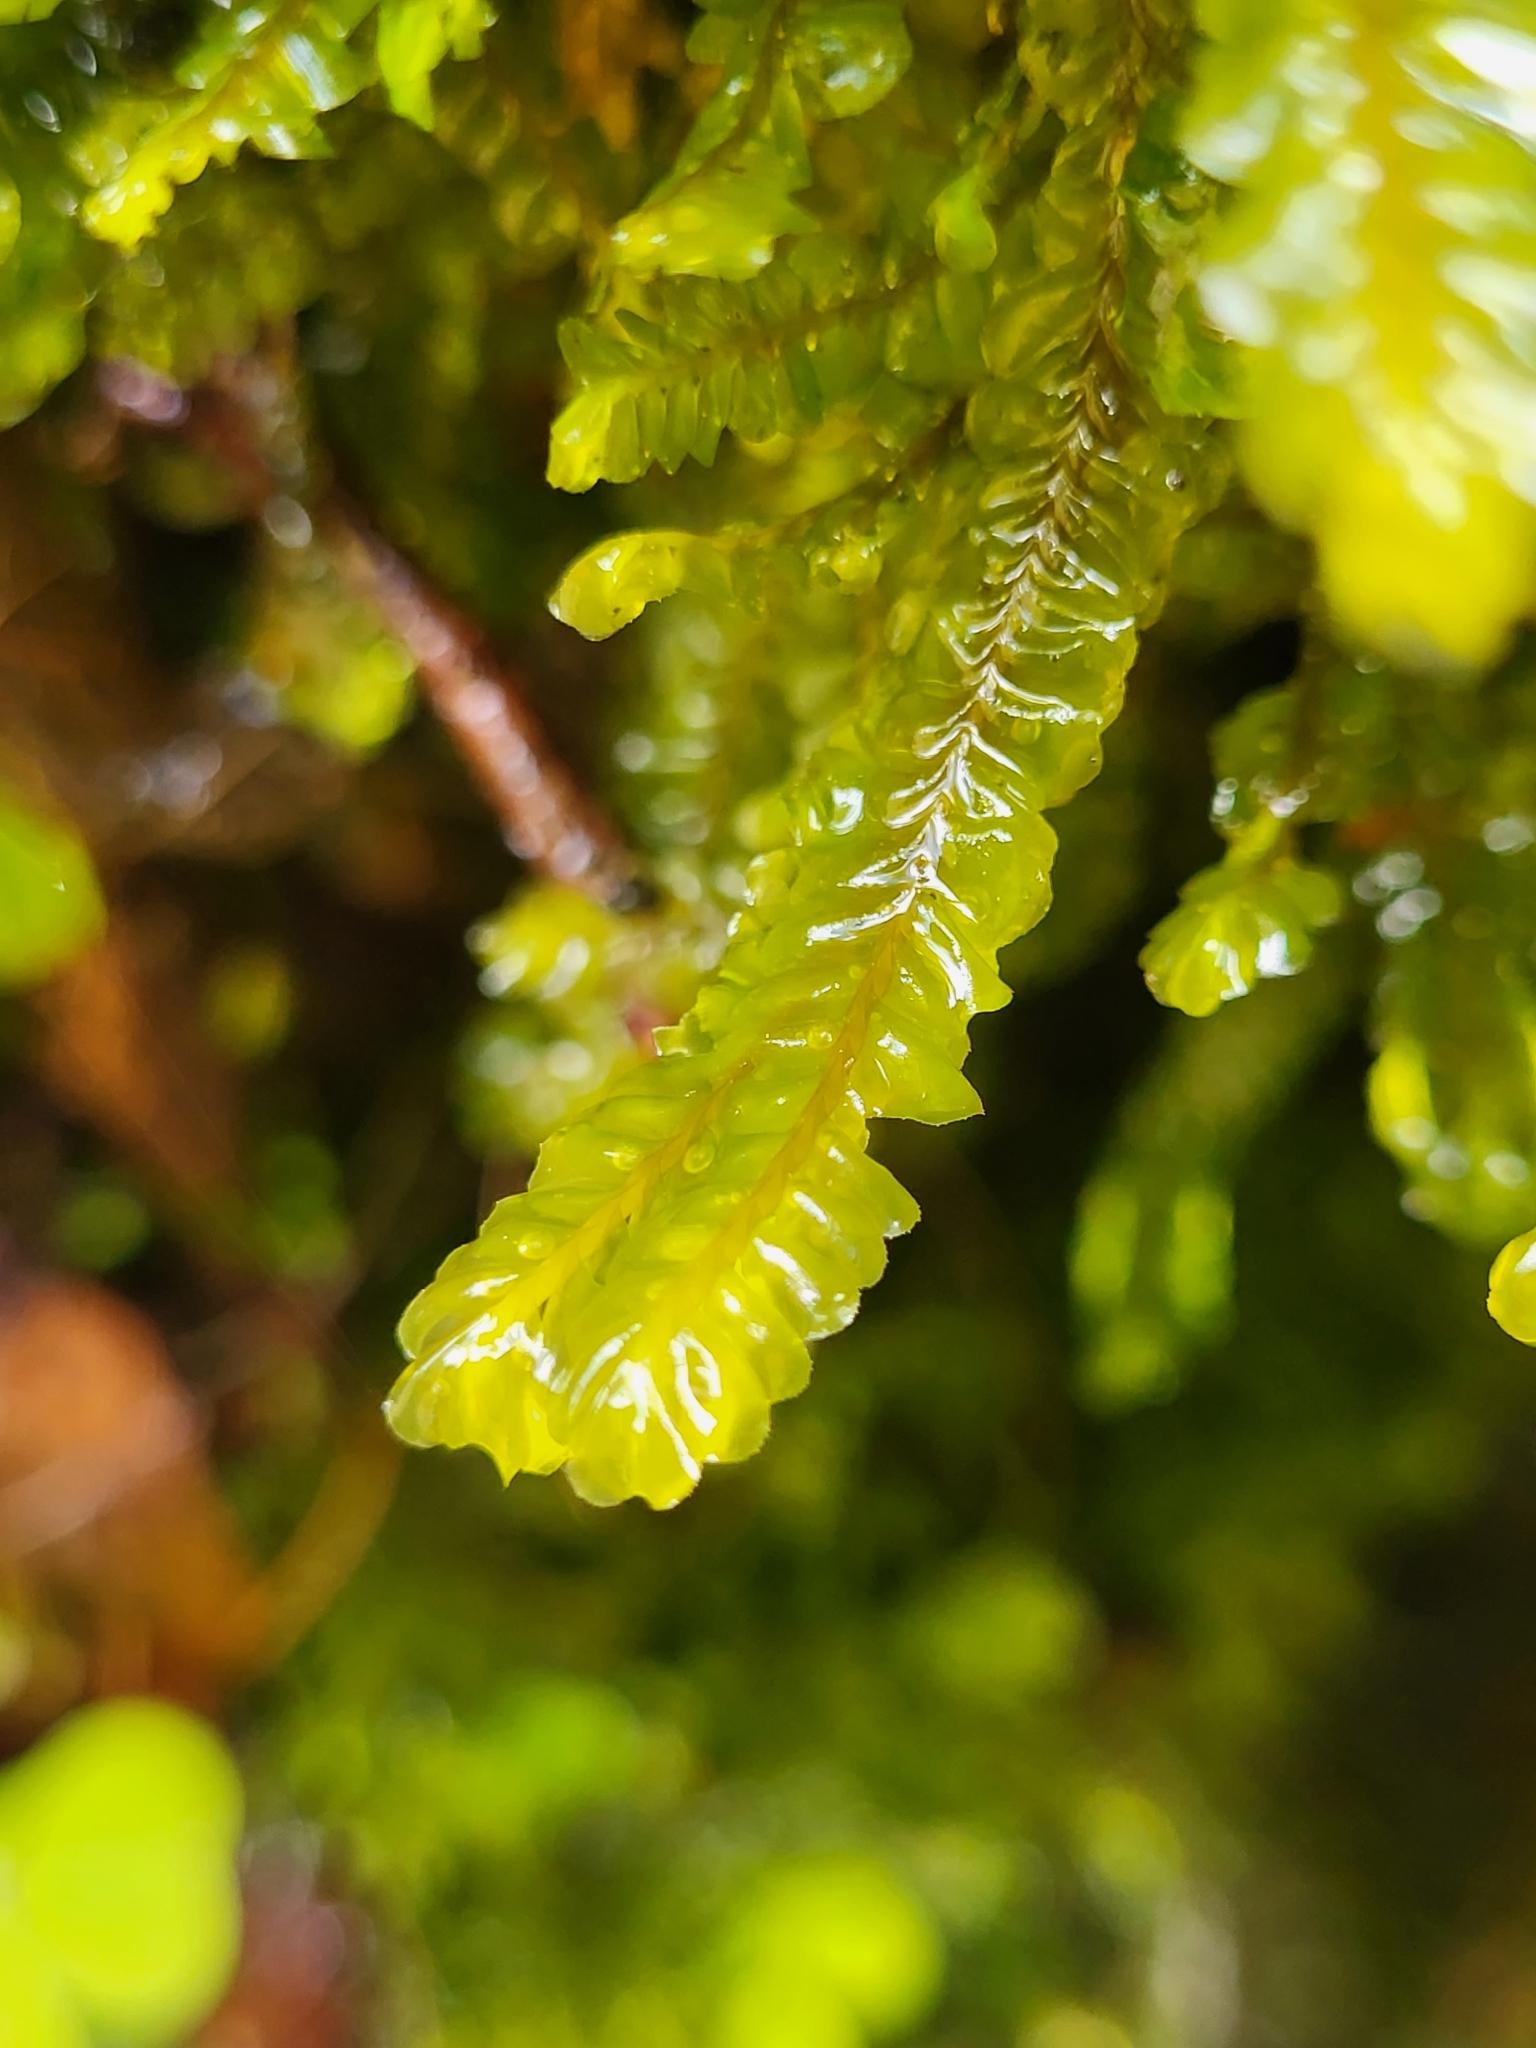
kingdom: Plantae
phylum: Marchantiophyta
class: Jungermanniopsida
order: Jungermanniales
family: Plagiochilaceae
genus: Plagiochila
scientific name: Plagiochila asplenioides
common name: Greater featherwort
